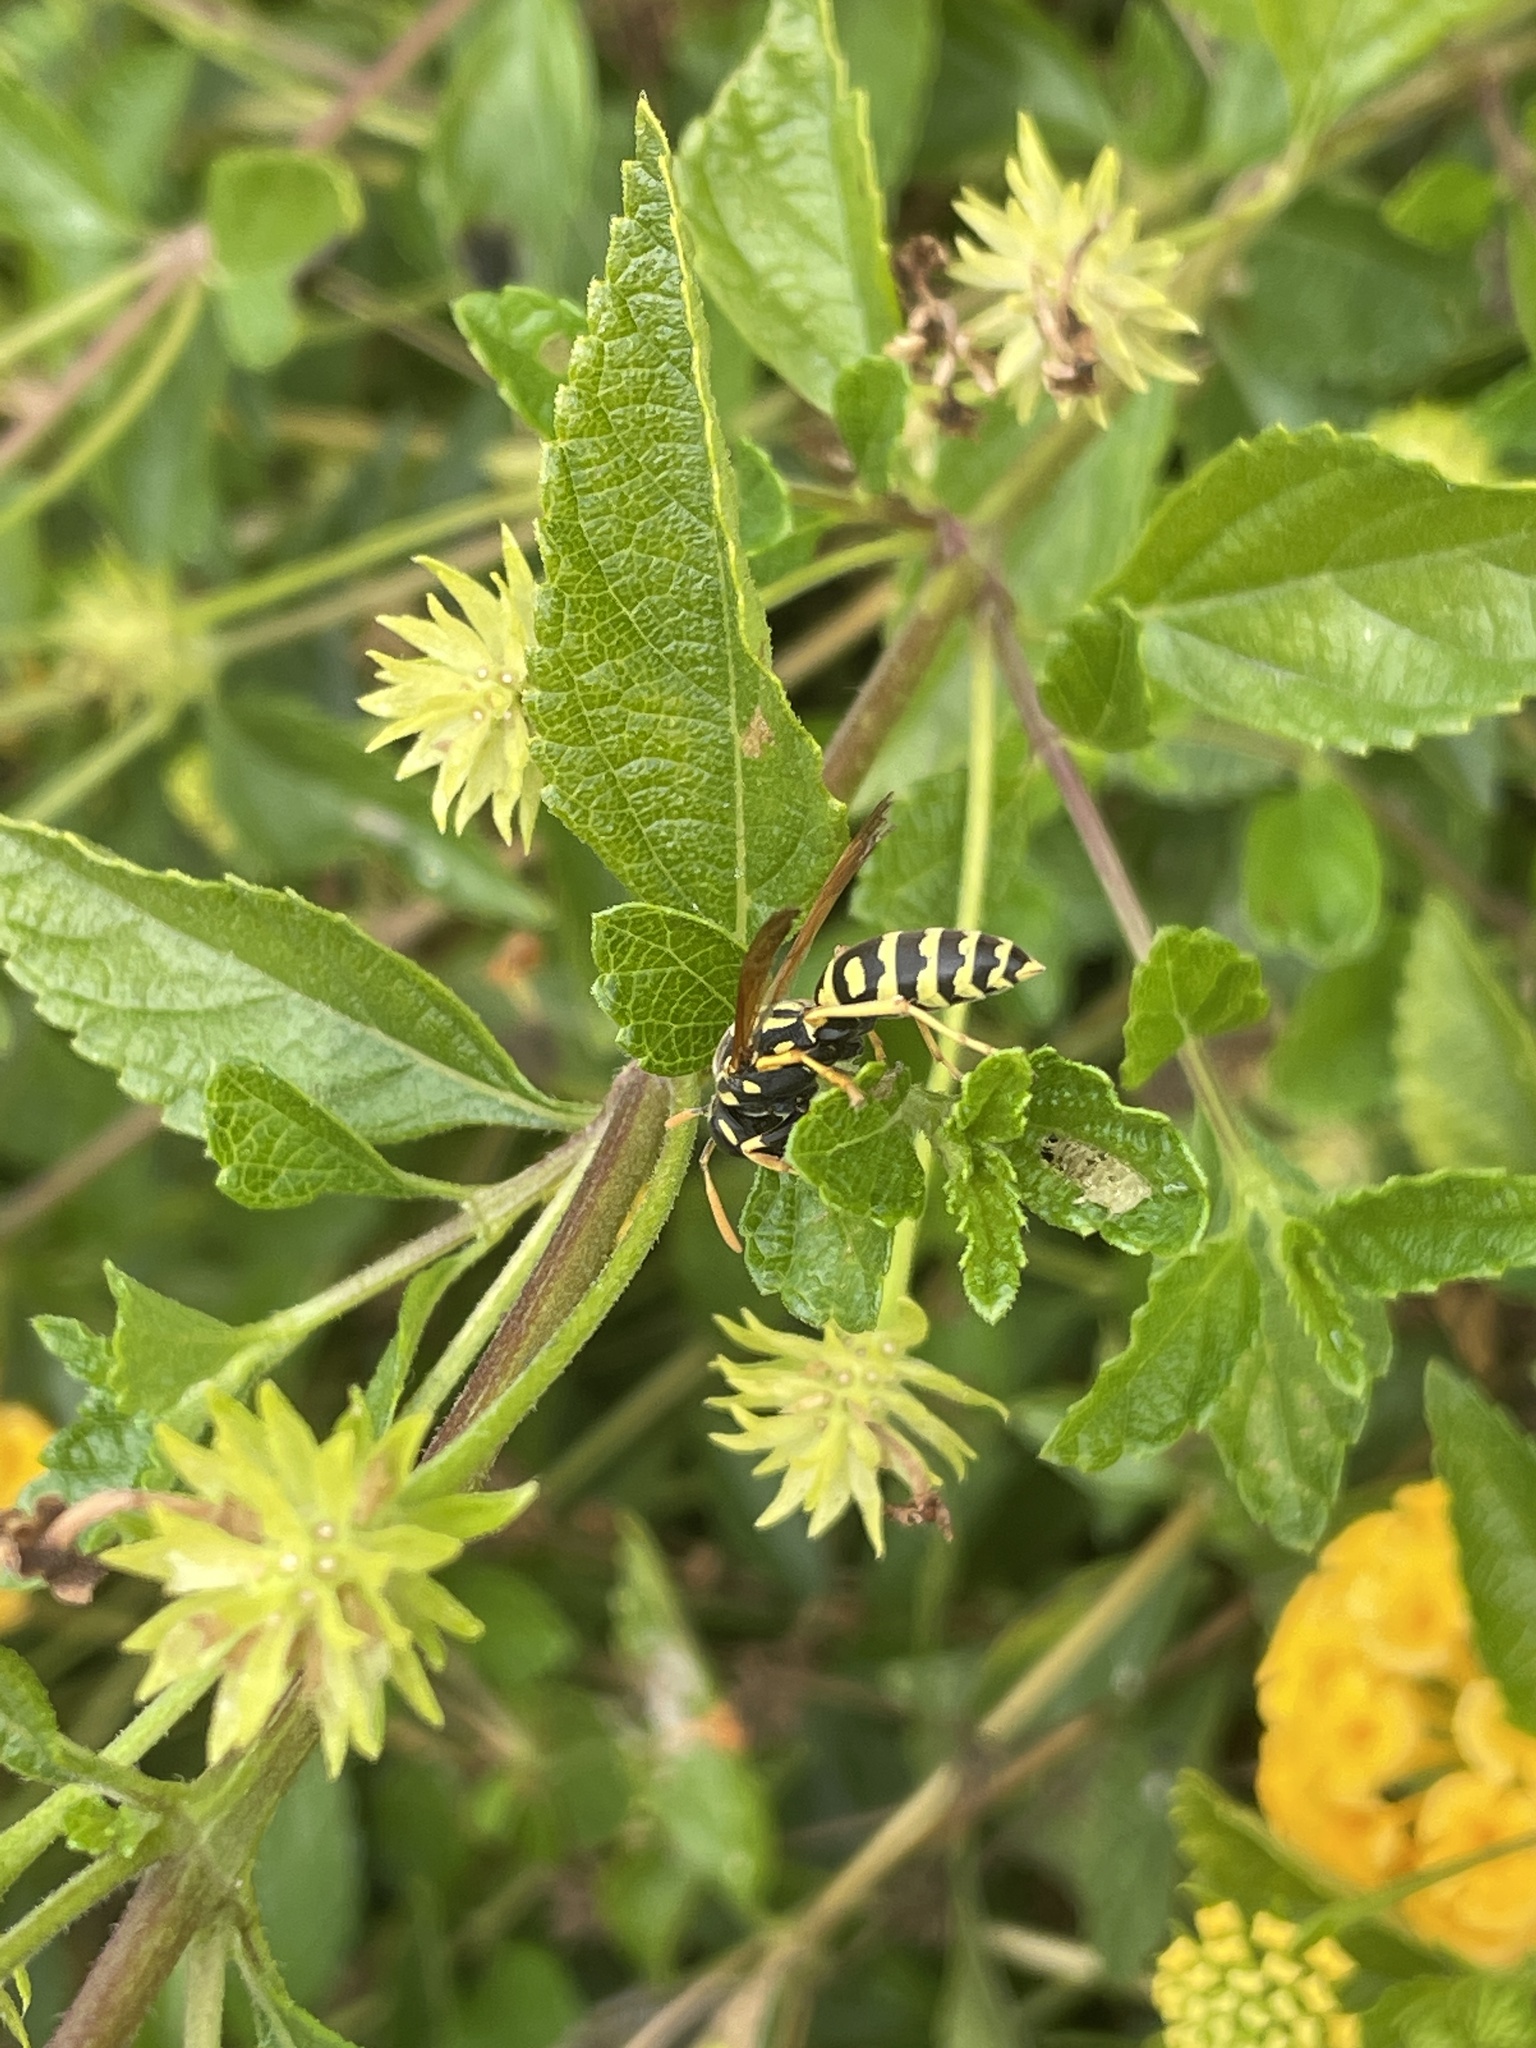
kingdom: Animalia
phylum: Arthropoda
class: Insecta
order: Hymenoptera
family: Eumenidae
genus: Polistes
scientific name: Polistes dominula
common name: Paper wasp
